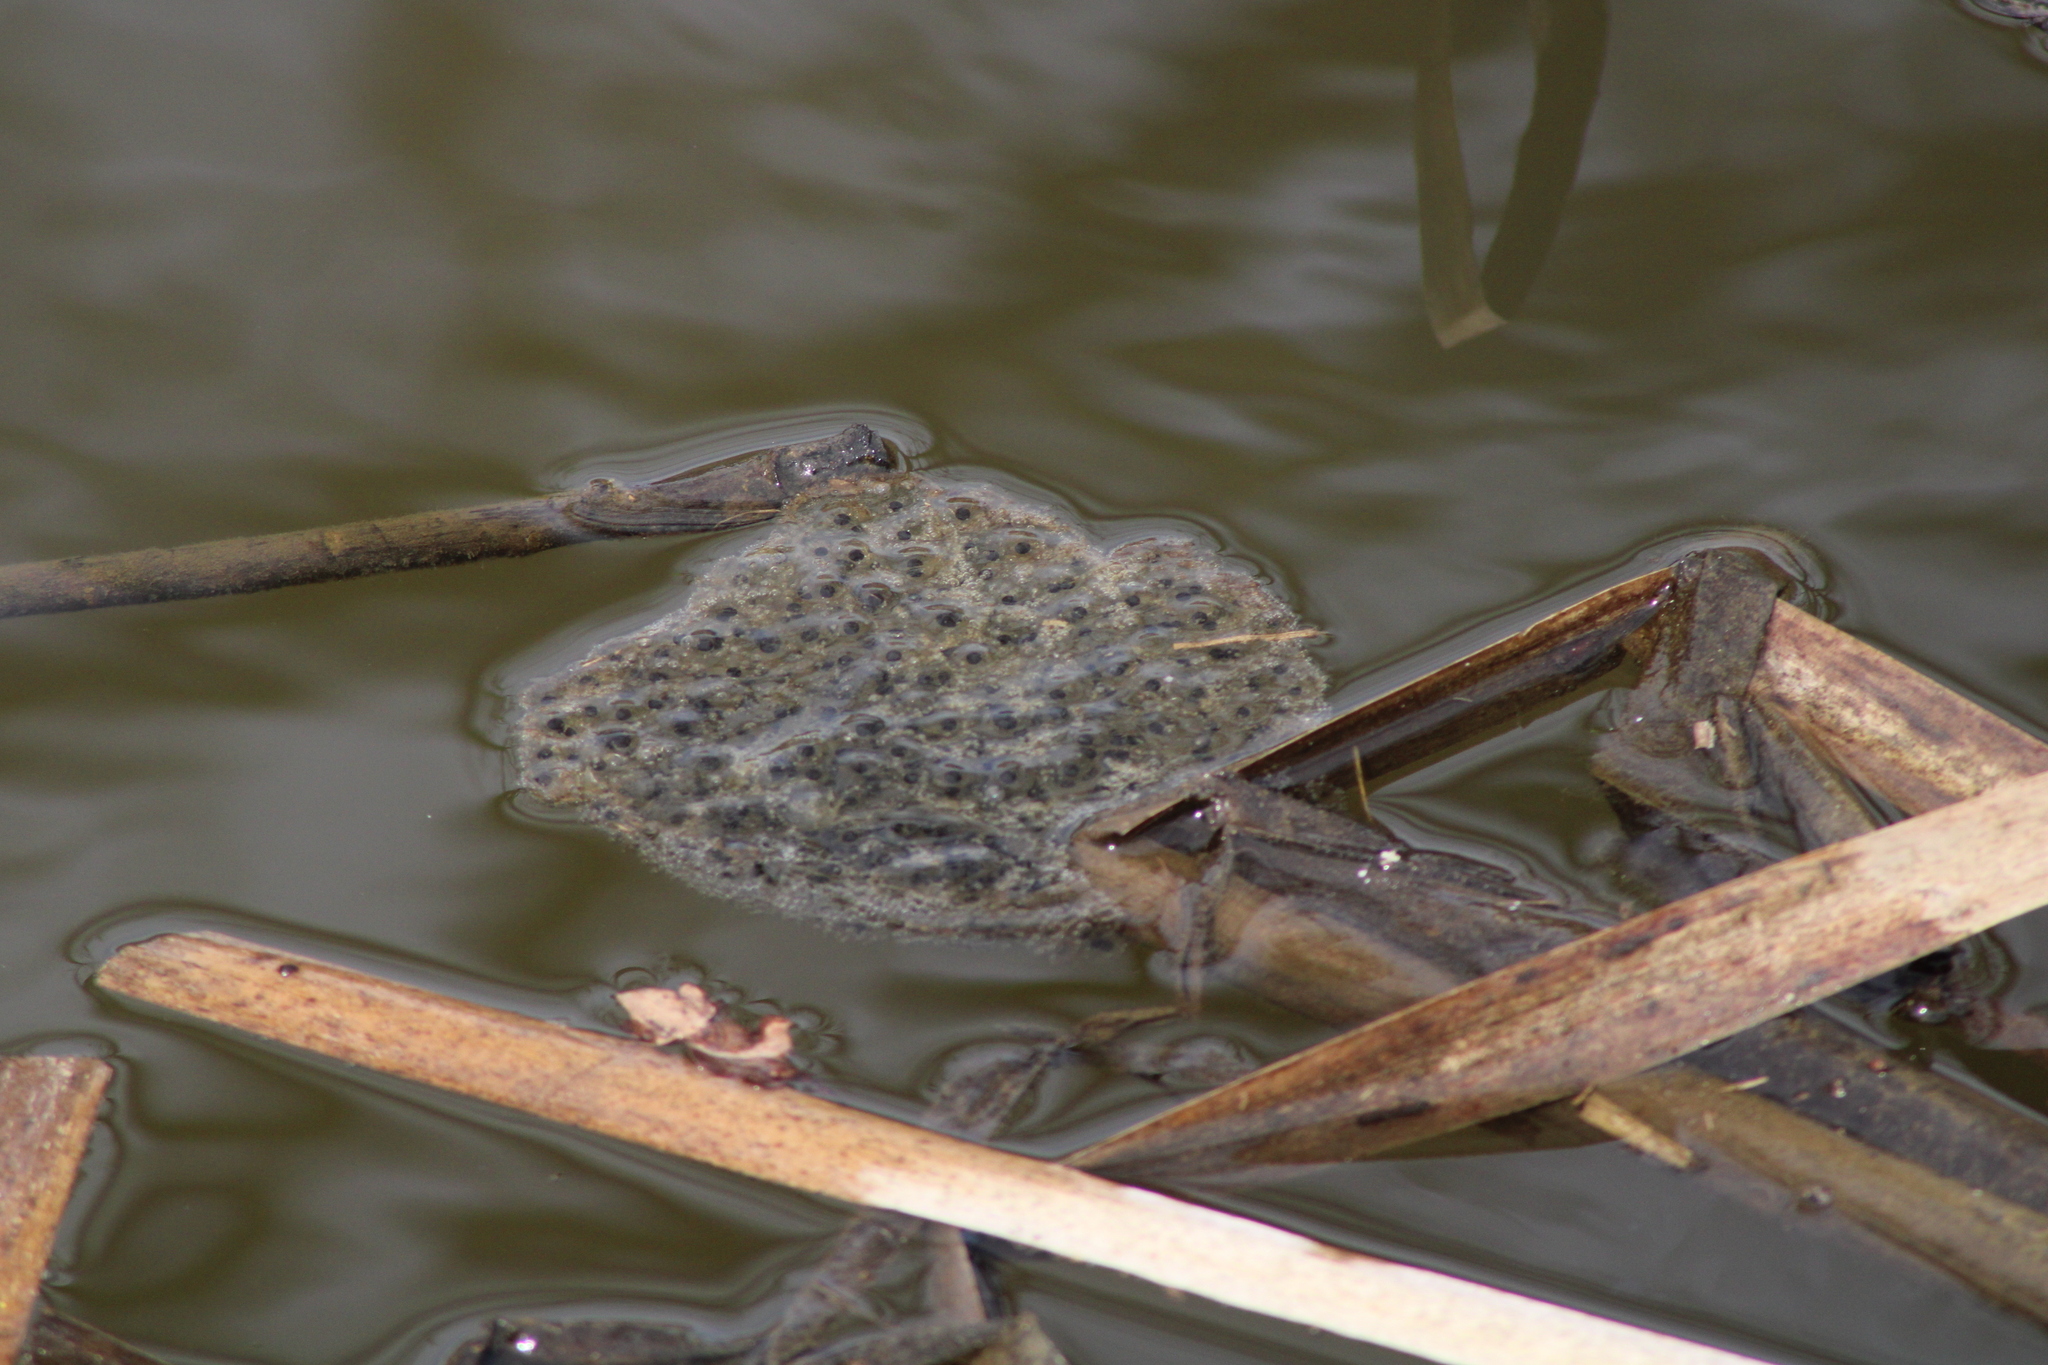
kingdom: Animalia
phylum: Chordata
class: Amphibia
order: Anura
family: Ranidae
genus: Rana
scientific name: Rana dalmatina
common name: Agile frog
